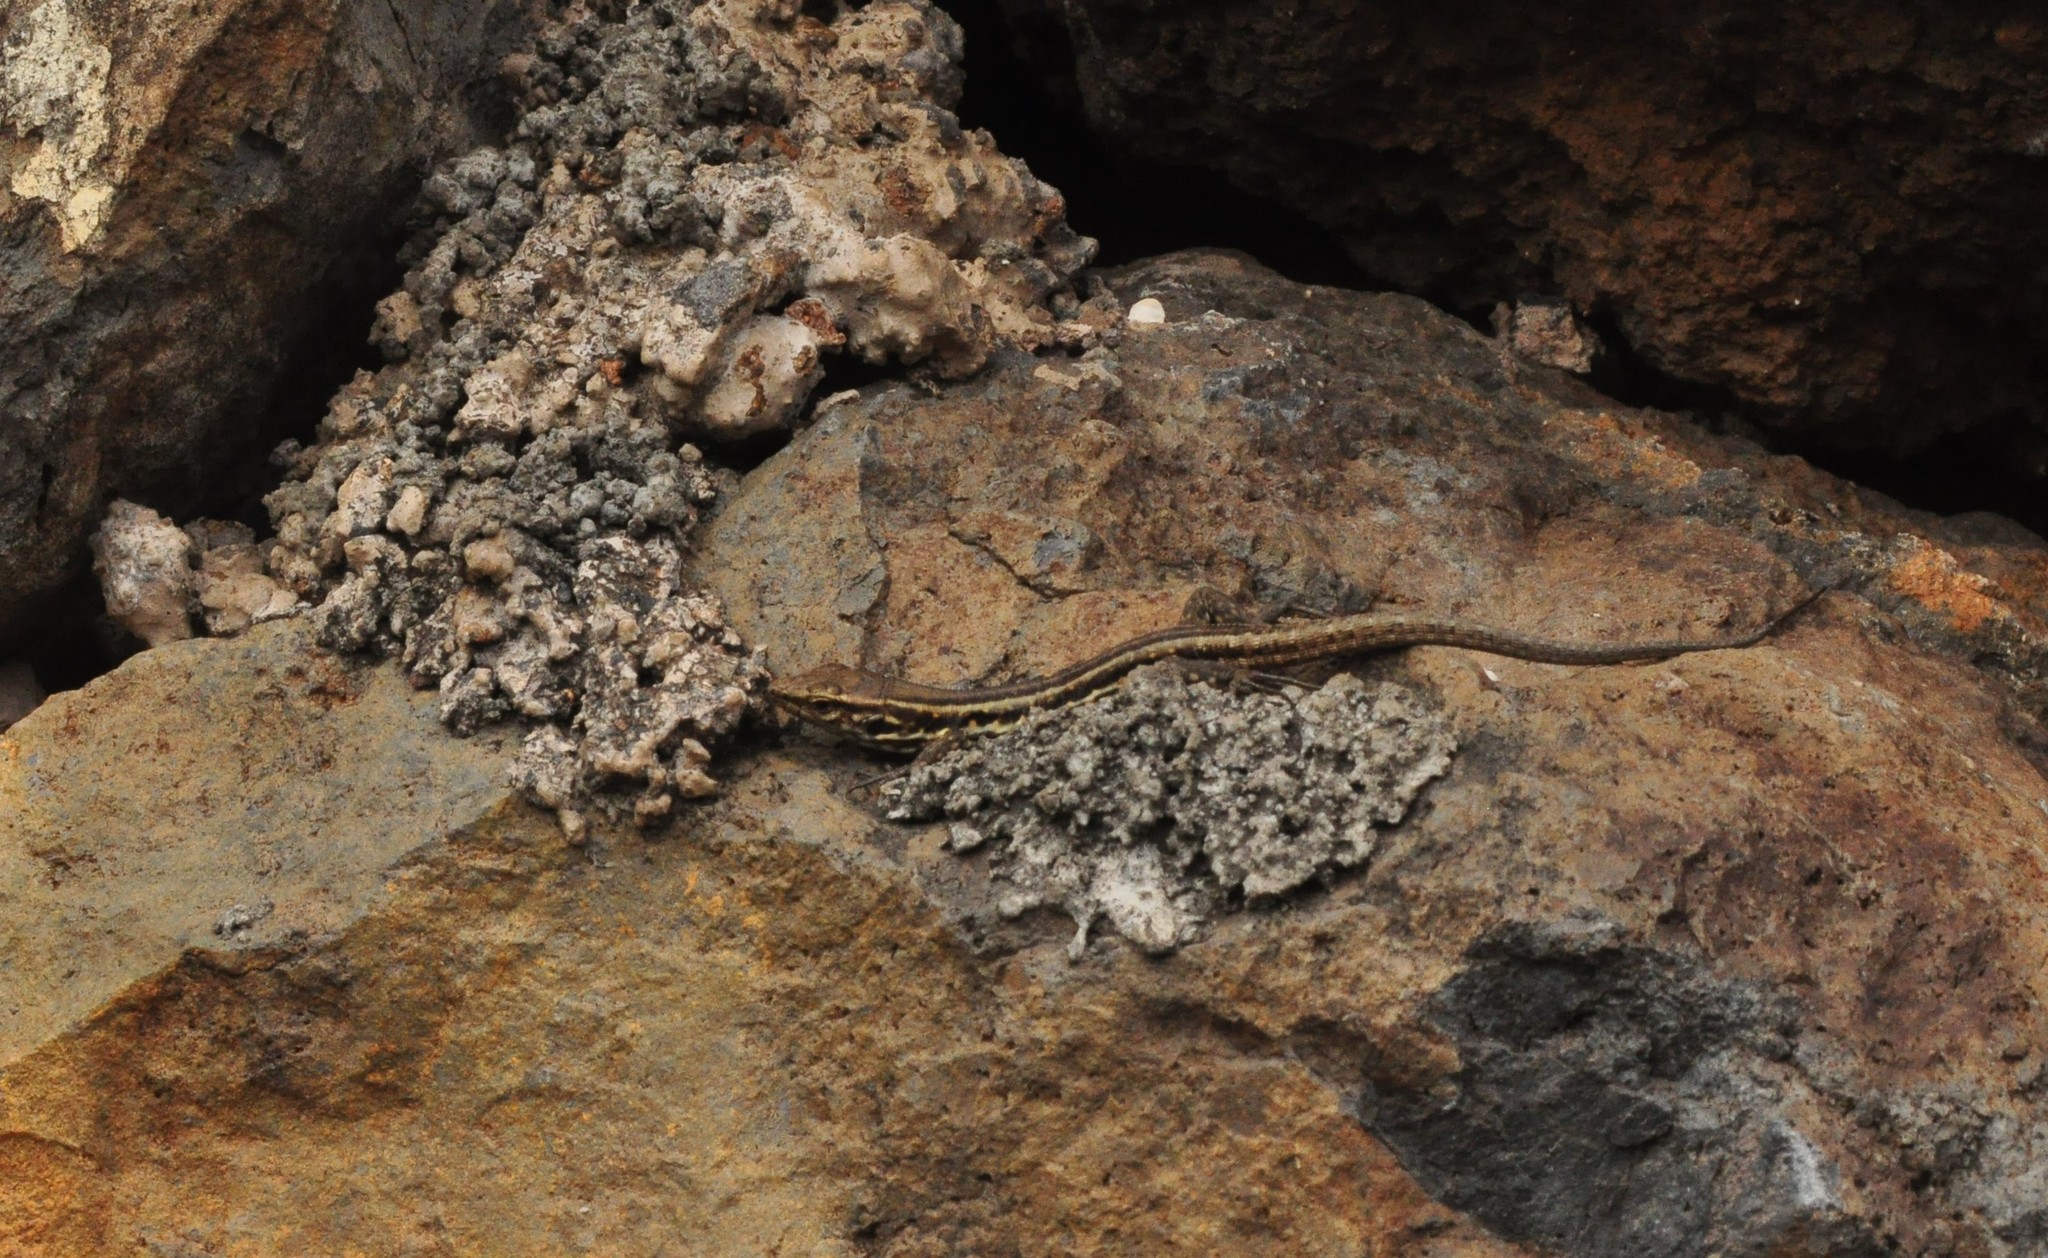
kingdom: Animalia
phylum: Chordata
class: Squamata
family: Lacertidae
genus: Gallotia
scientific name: Gallotia galloti
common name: Gallot's lizard
